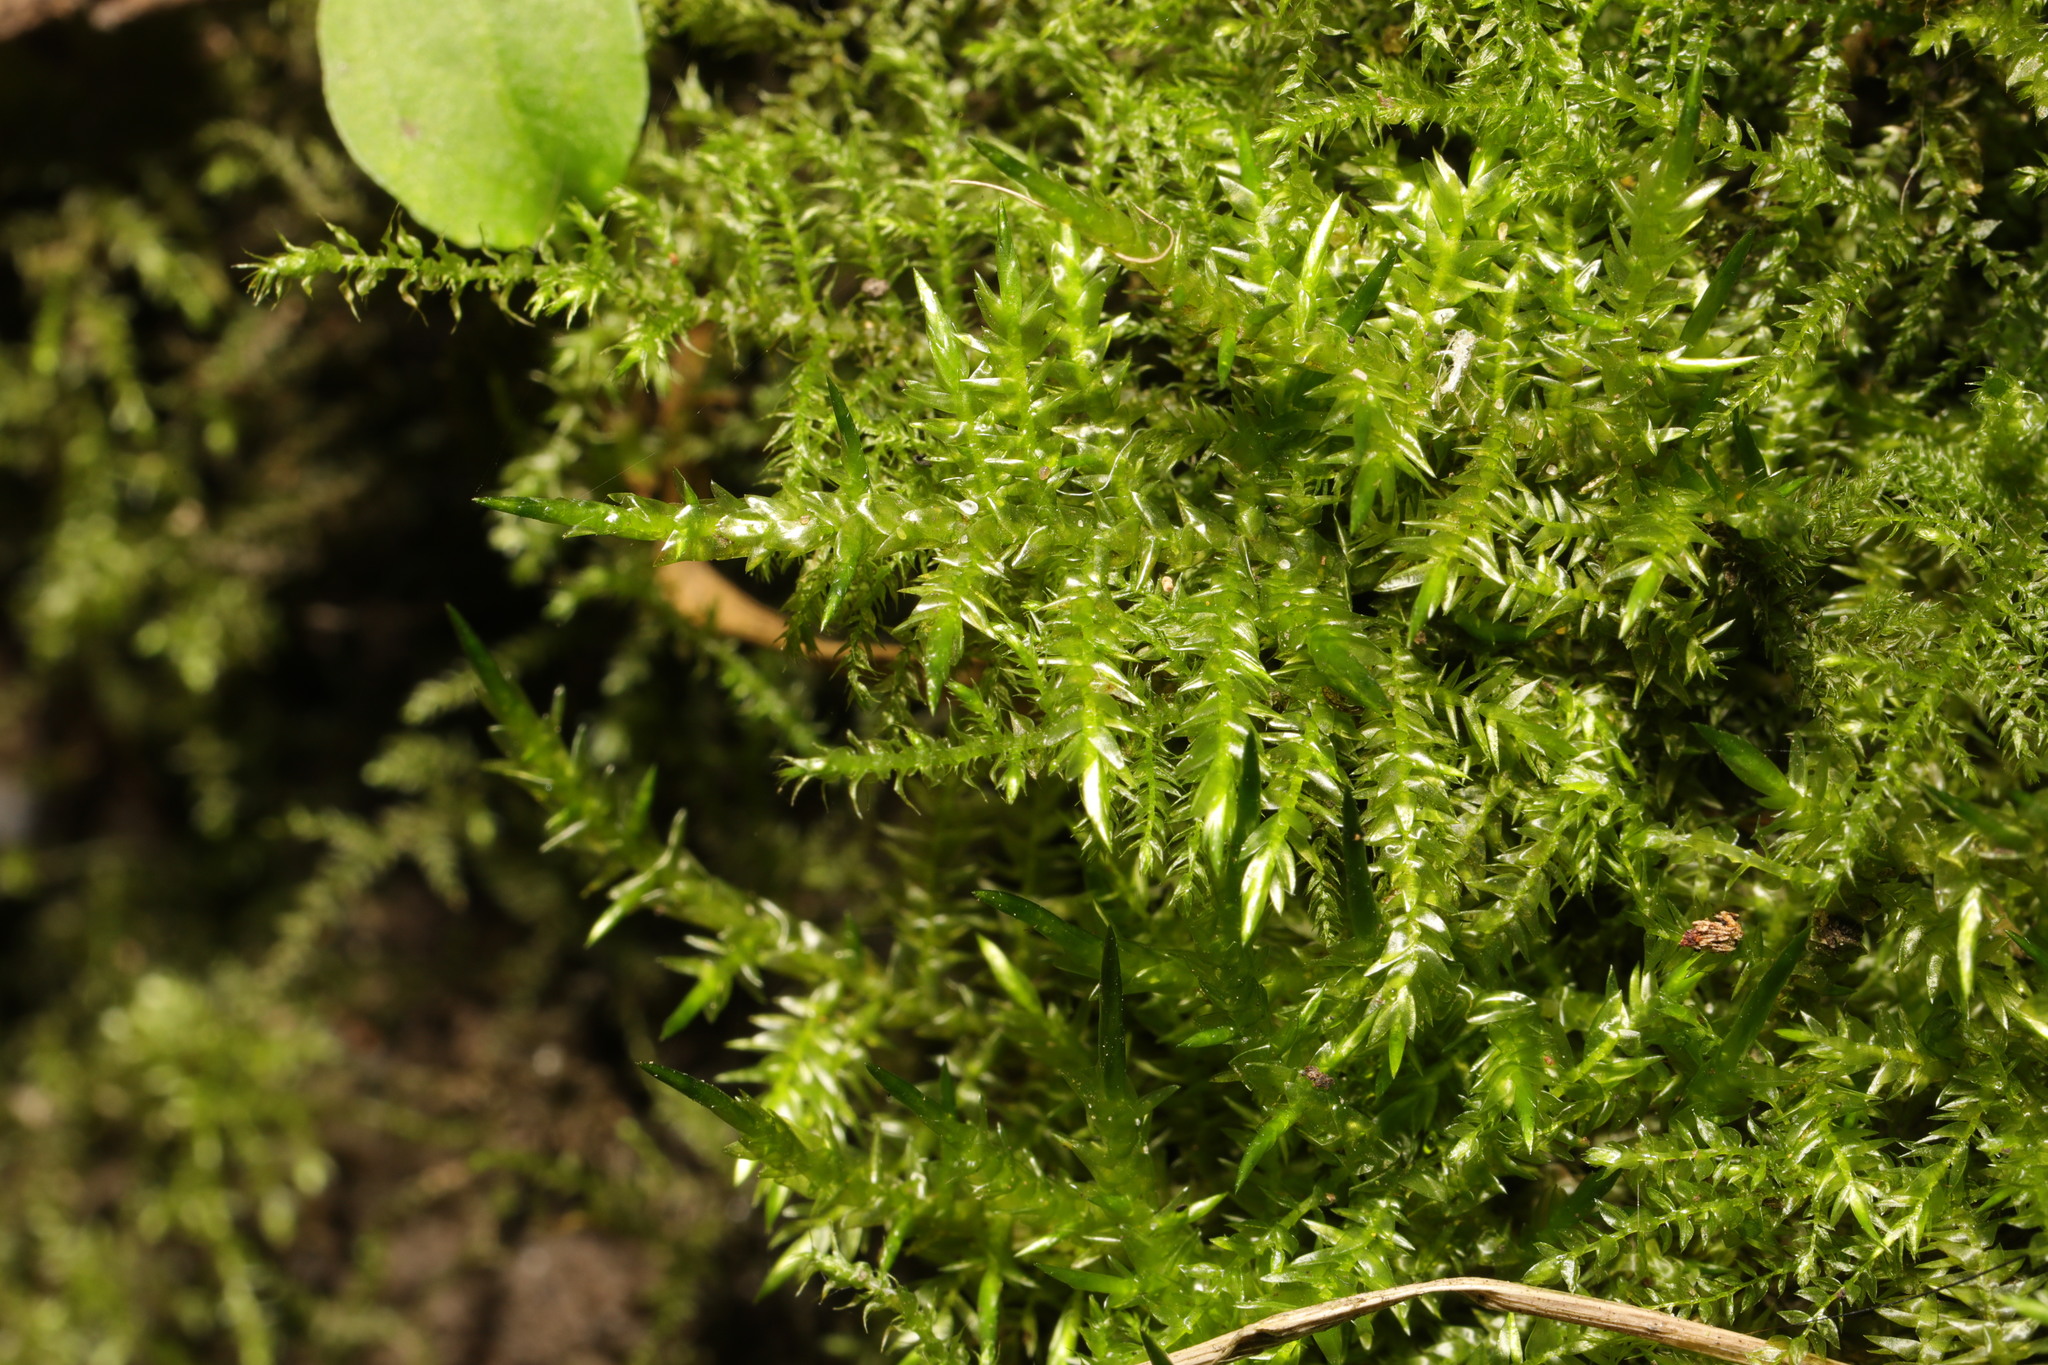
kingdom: Plantae
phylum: Bryophyta
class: Bryopsida
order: Hypnales
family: Brachytheciaceae
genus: Kindbergia
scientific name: Kindbergia praelonga
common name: Slender beaked moss
